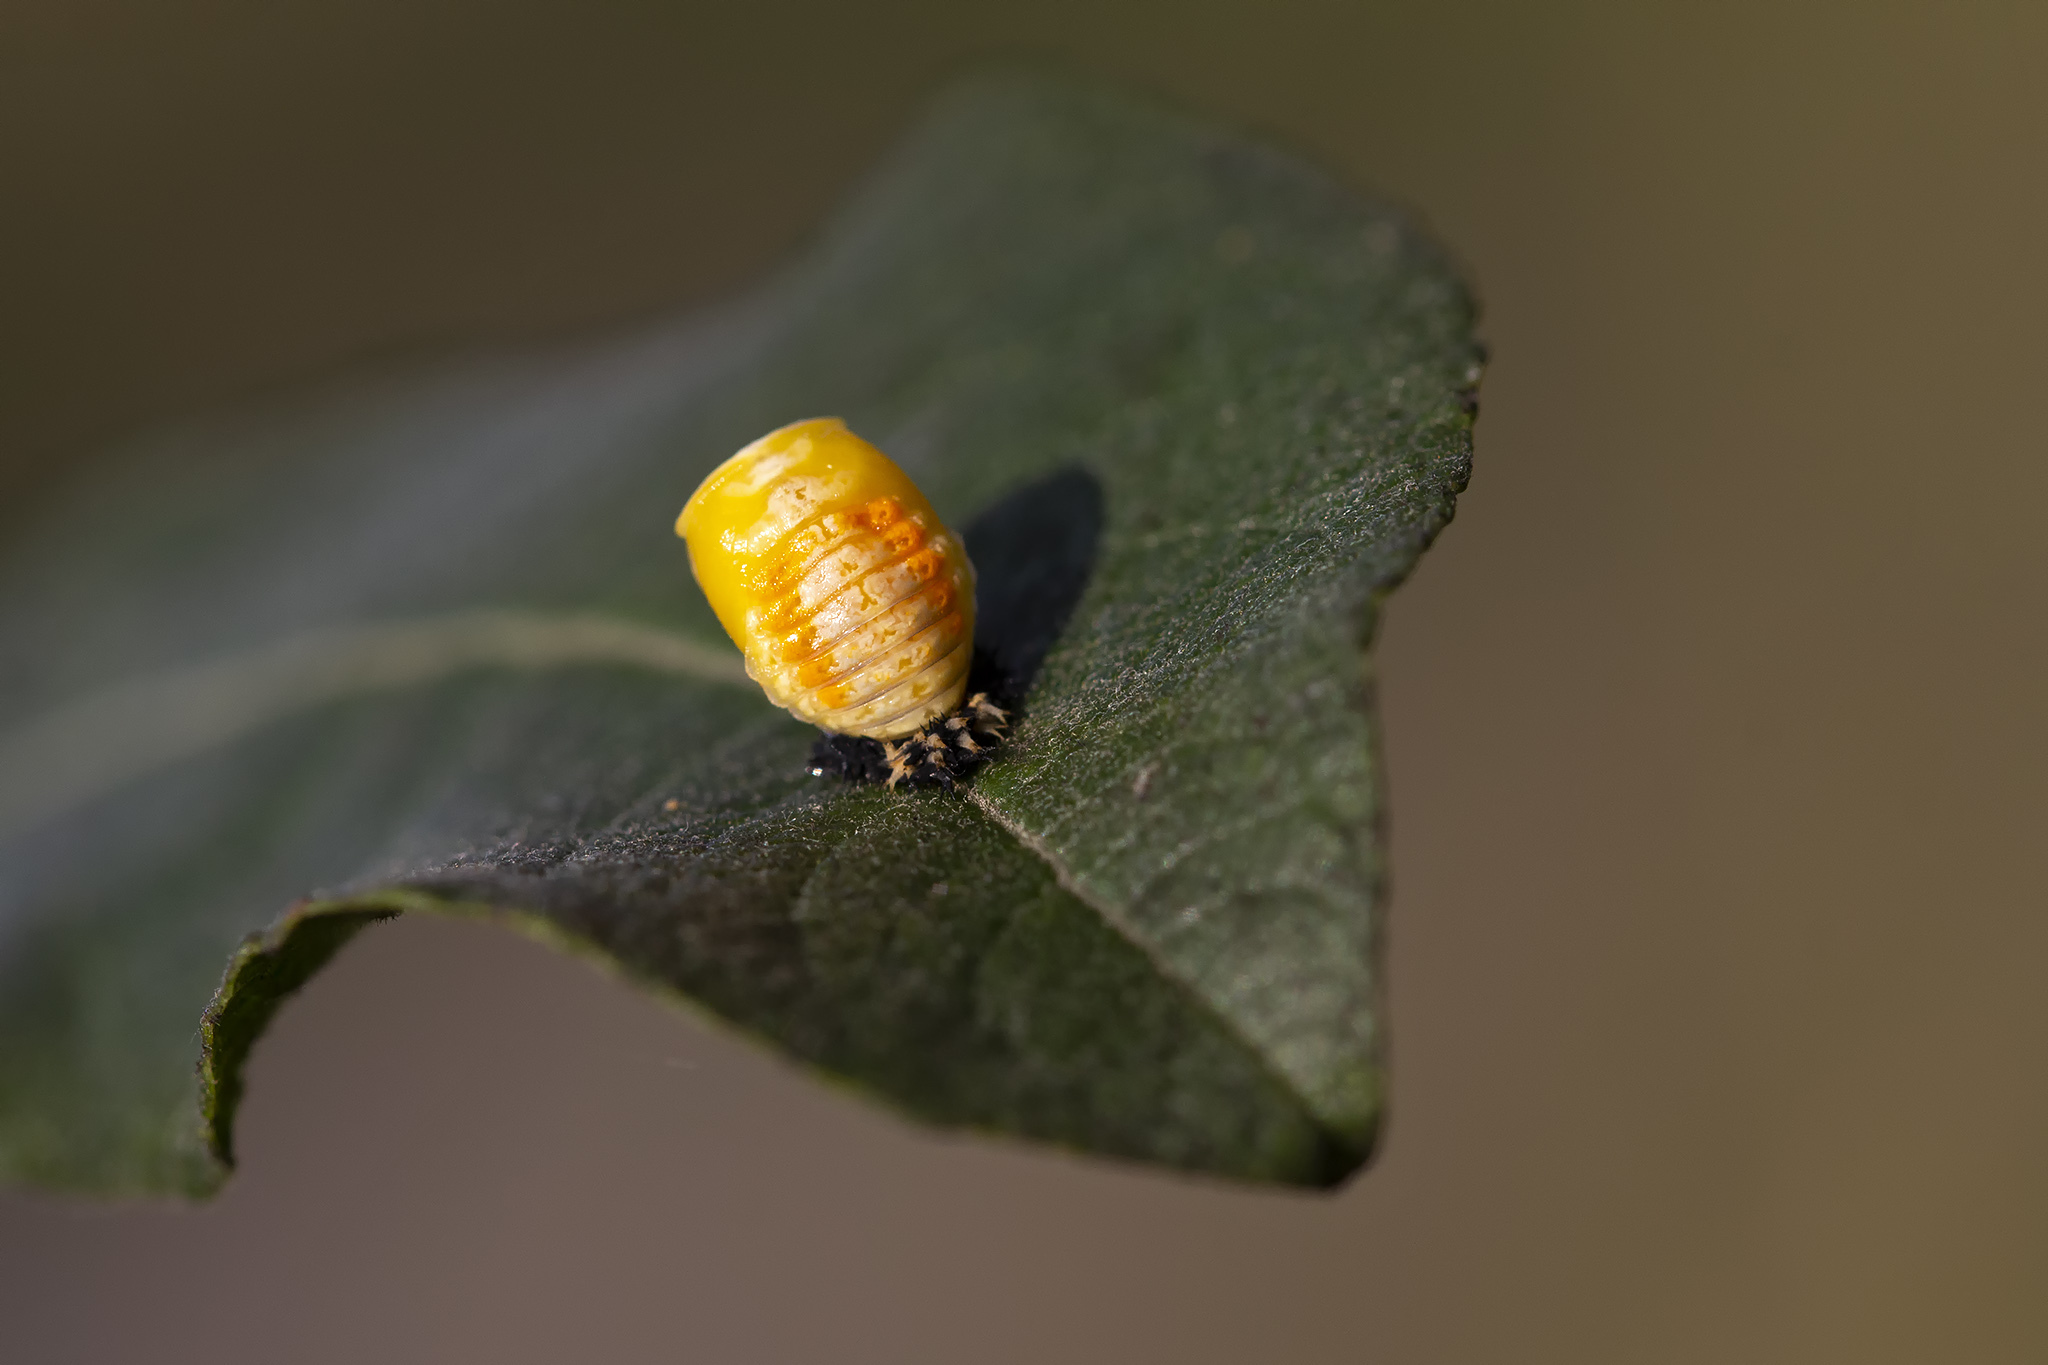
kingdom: Animalia
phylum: Arthropoda
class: Insecta
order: Coleoptera
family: Coccinellidae
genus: Harmonia
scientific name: Harmonia axyridis
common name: Harlequin ladybird
